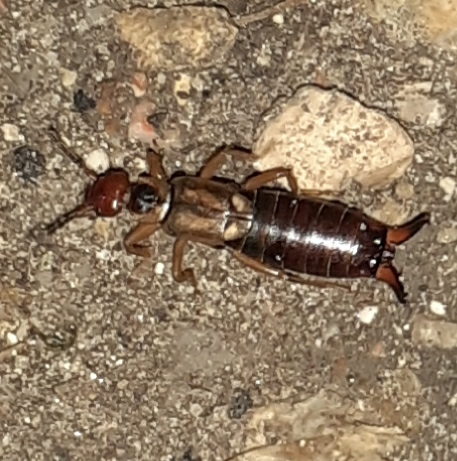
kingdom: Animalia
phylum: Arthropoda
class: Insecta
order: Dermaptera
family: Forficulidae
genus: Forficula
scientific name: Forficula
